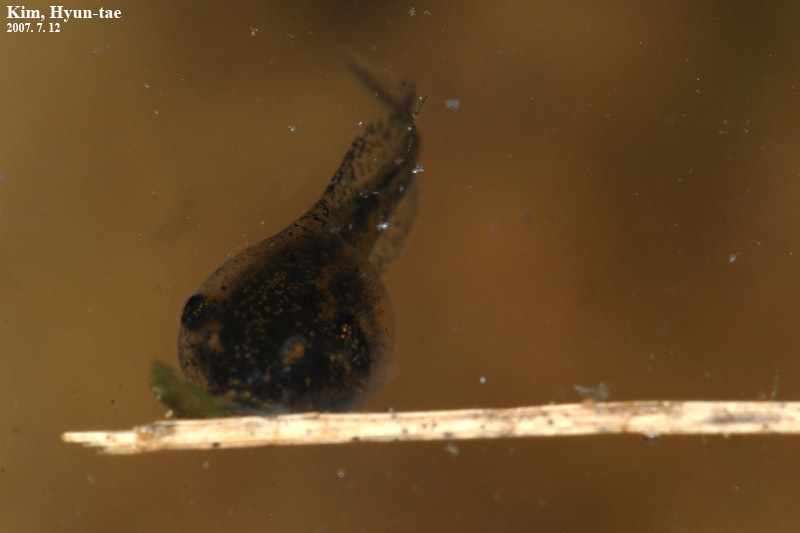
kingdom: Animalia
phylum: Chordata
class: Amphibia
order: Anura
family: Hylidae
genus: Dryophytes
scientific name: Dryophytes japonicus
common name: Japanese treefrog
